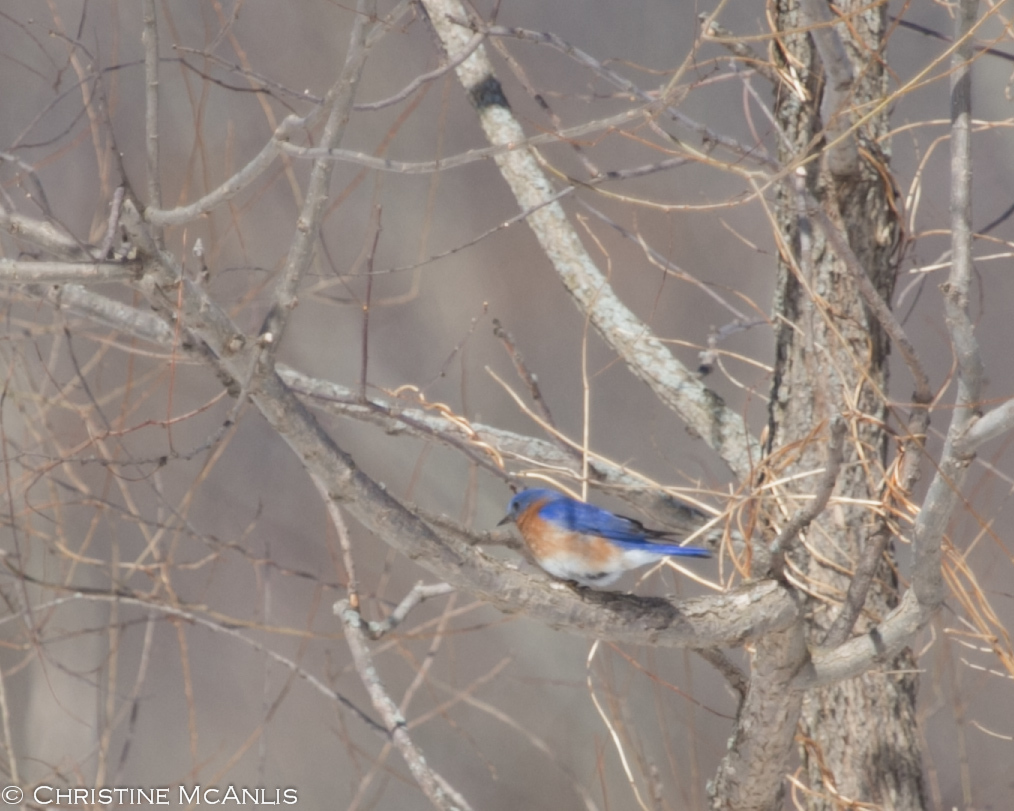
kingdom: Animalia
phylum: Chordata
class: Aves
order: Passeriformes
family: Turdidae
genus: Sialia
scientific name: Sialia sialis
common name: Eastern bluebird
